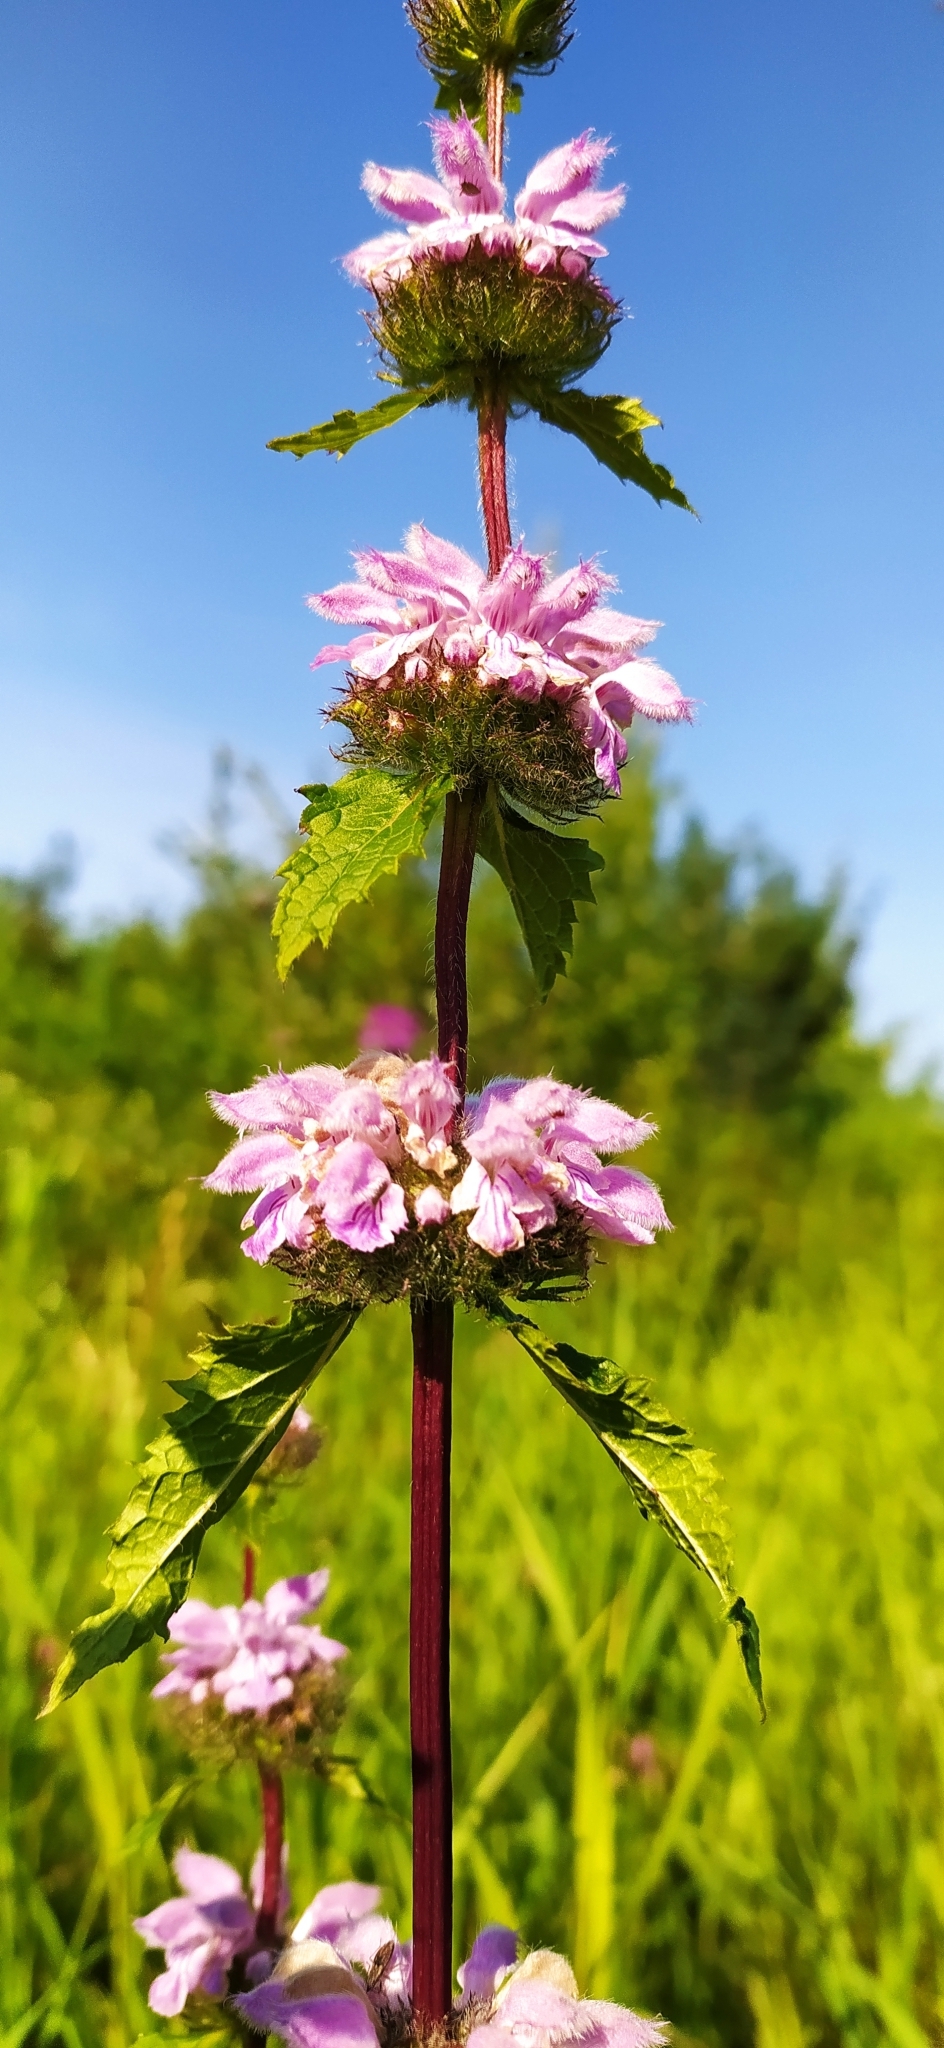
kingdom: Plantae
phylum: Tracheophyta
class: Magnoliopsida
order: Lamiales
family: Lamiaceae
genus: Phlomoides
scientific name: Phlomoides tuberosa
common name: Tuberous jerusalem sage
